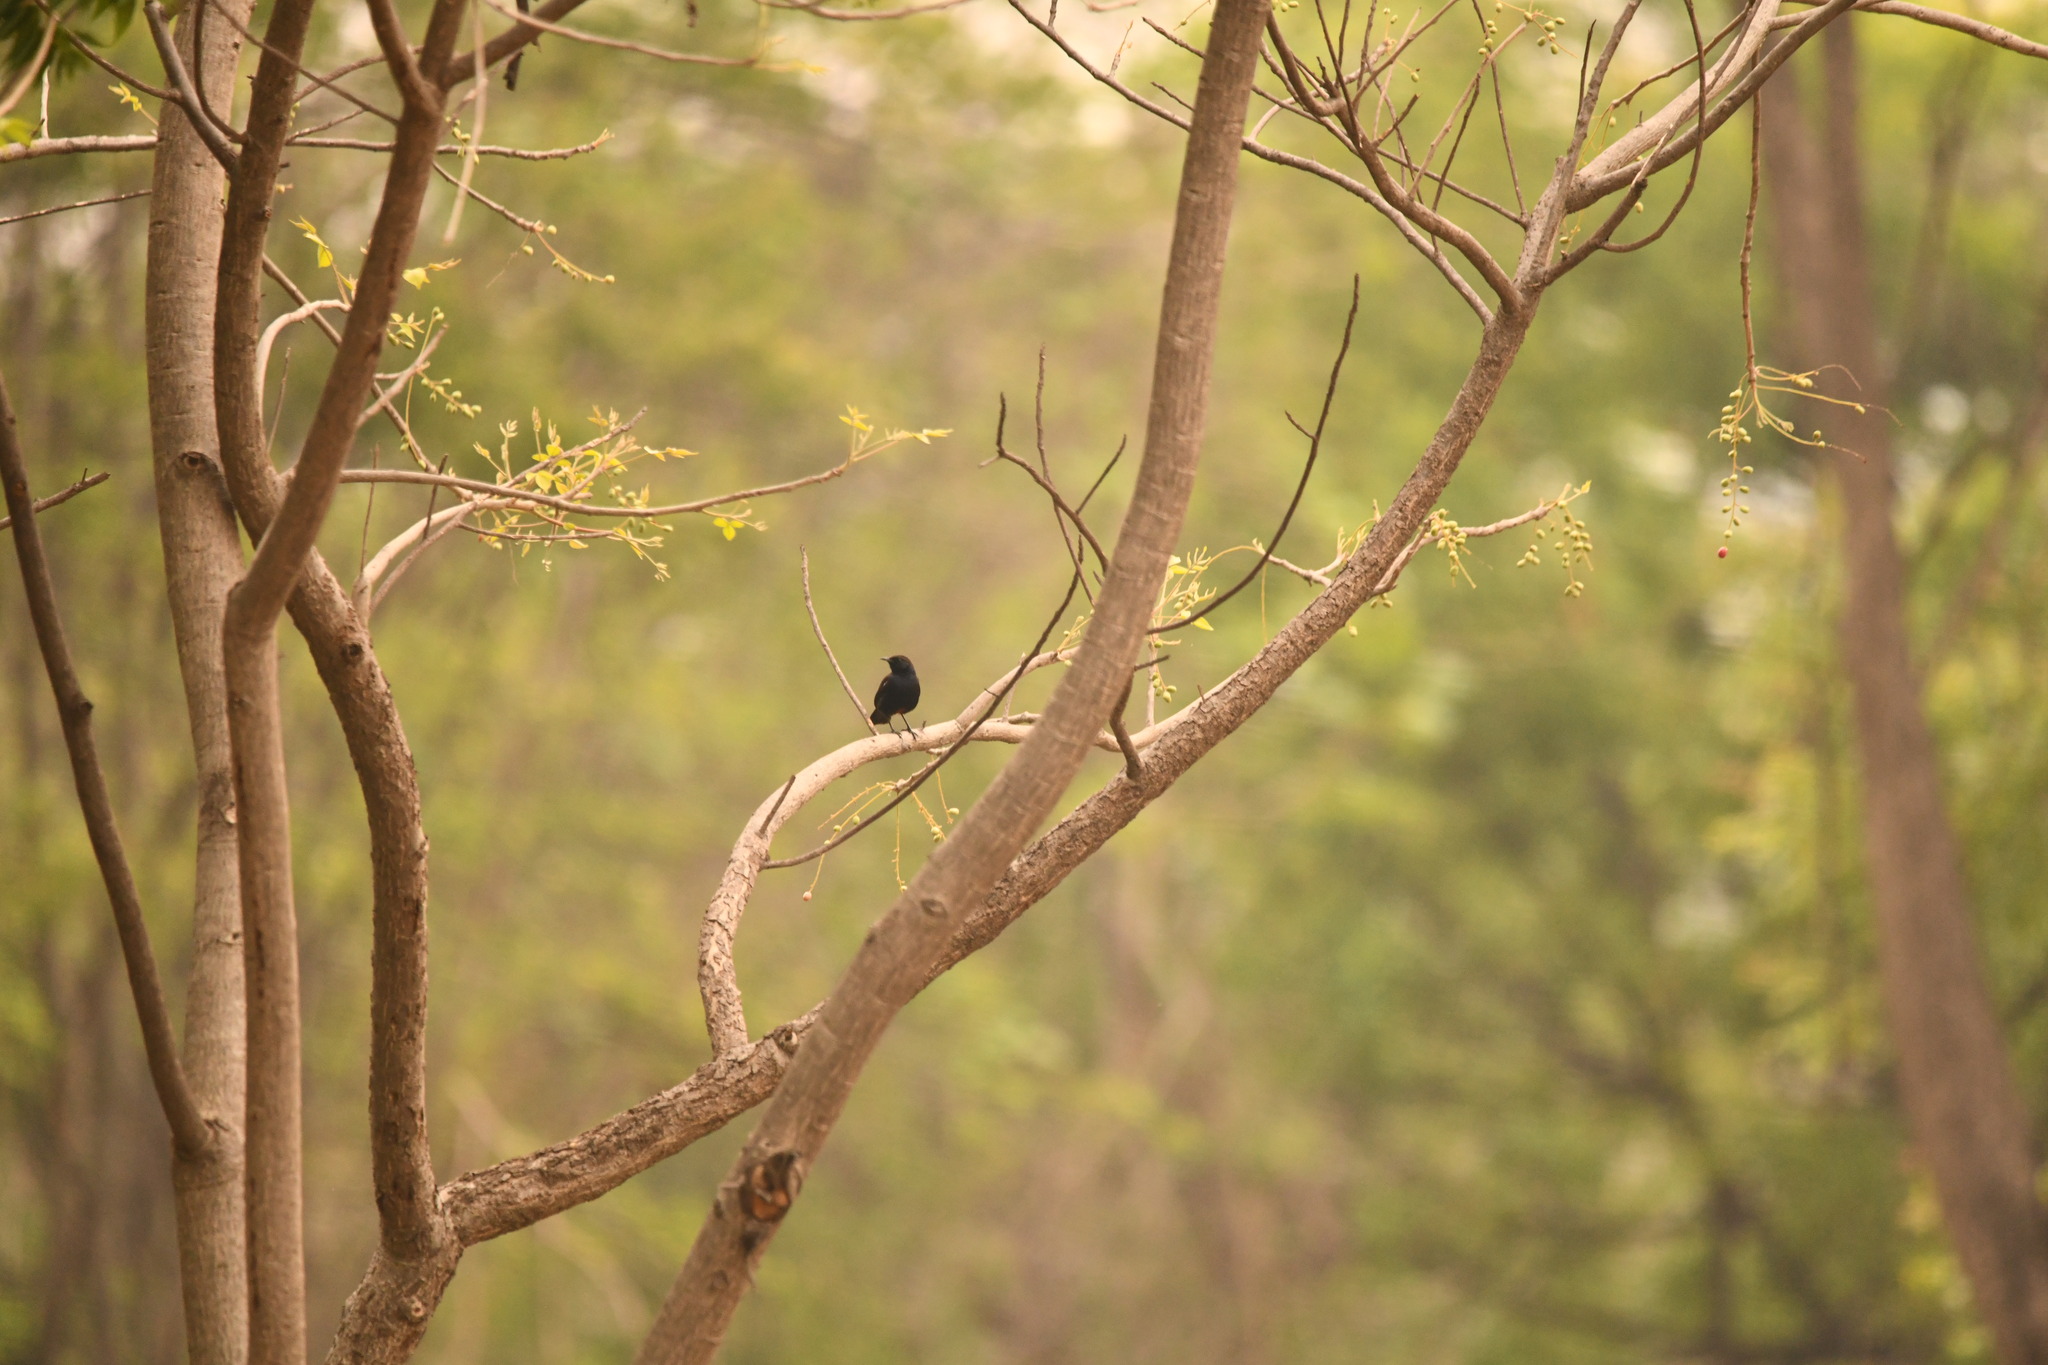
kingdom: Animalia
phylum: Chordata
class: Aves
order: Passeriformes
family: Muscicapidae
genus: Saxicoloides
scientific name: Saxicoloides fulicatus
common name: Indian robin
